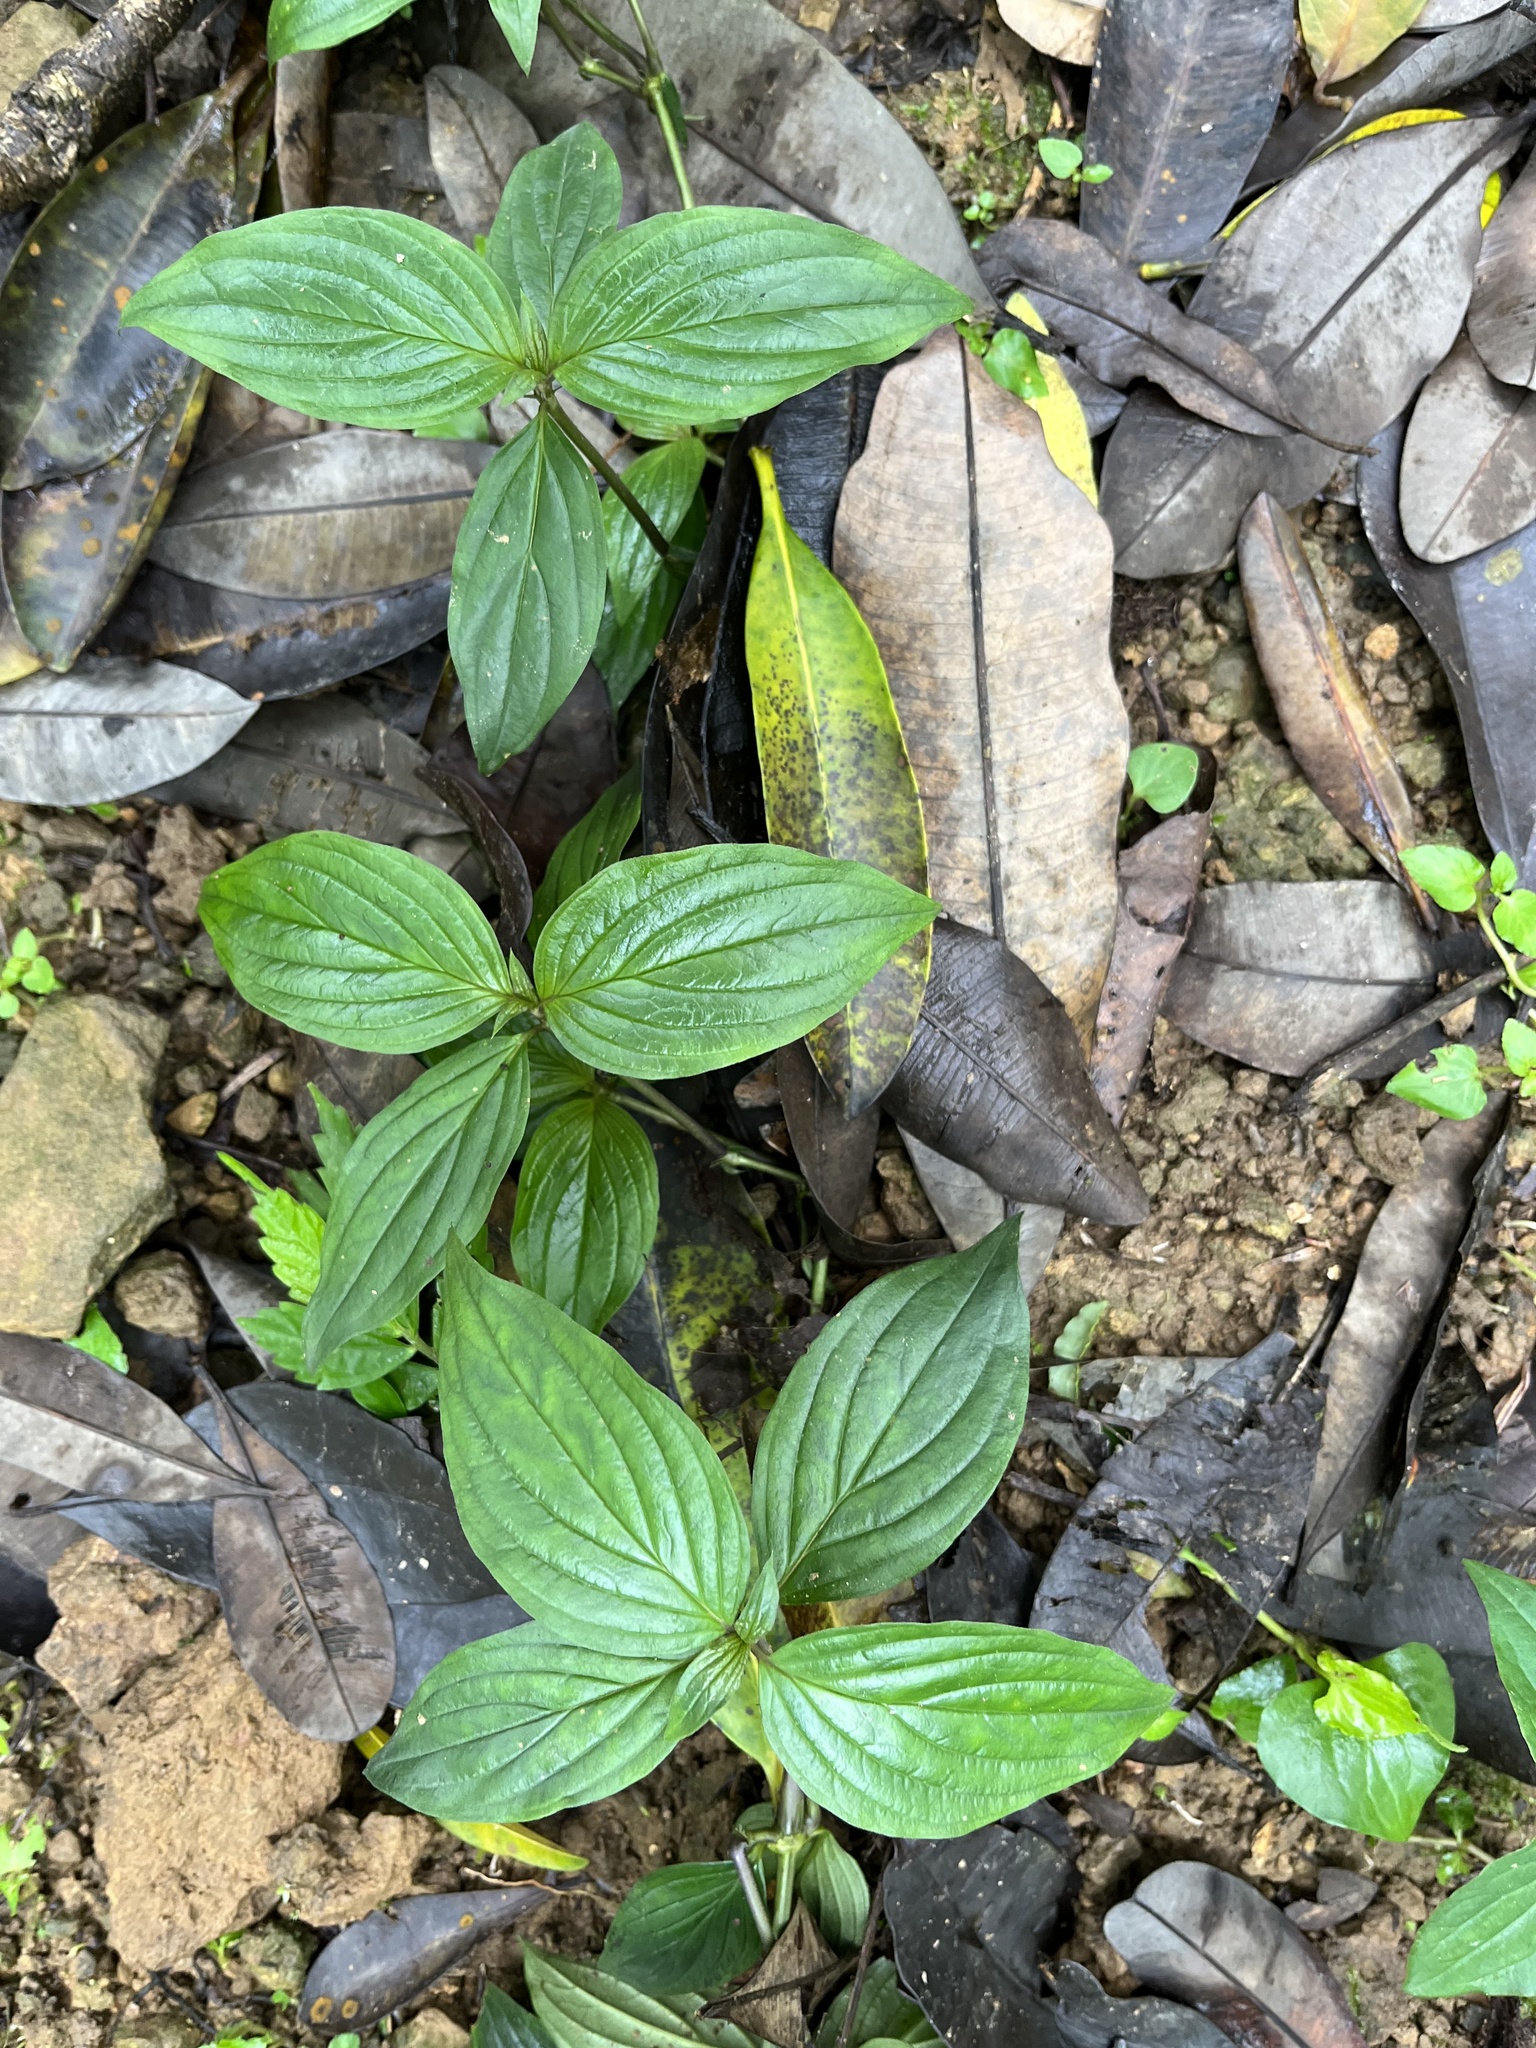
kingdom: Plantae
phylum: Tracheophyta
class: Magnoliopsida
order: Gentianales
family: Rubiaceae
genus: Dimetia
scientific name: Dimetia hedyotidea
